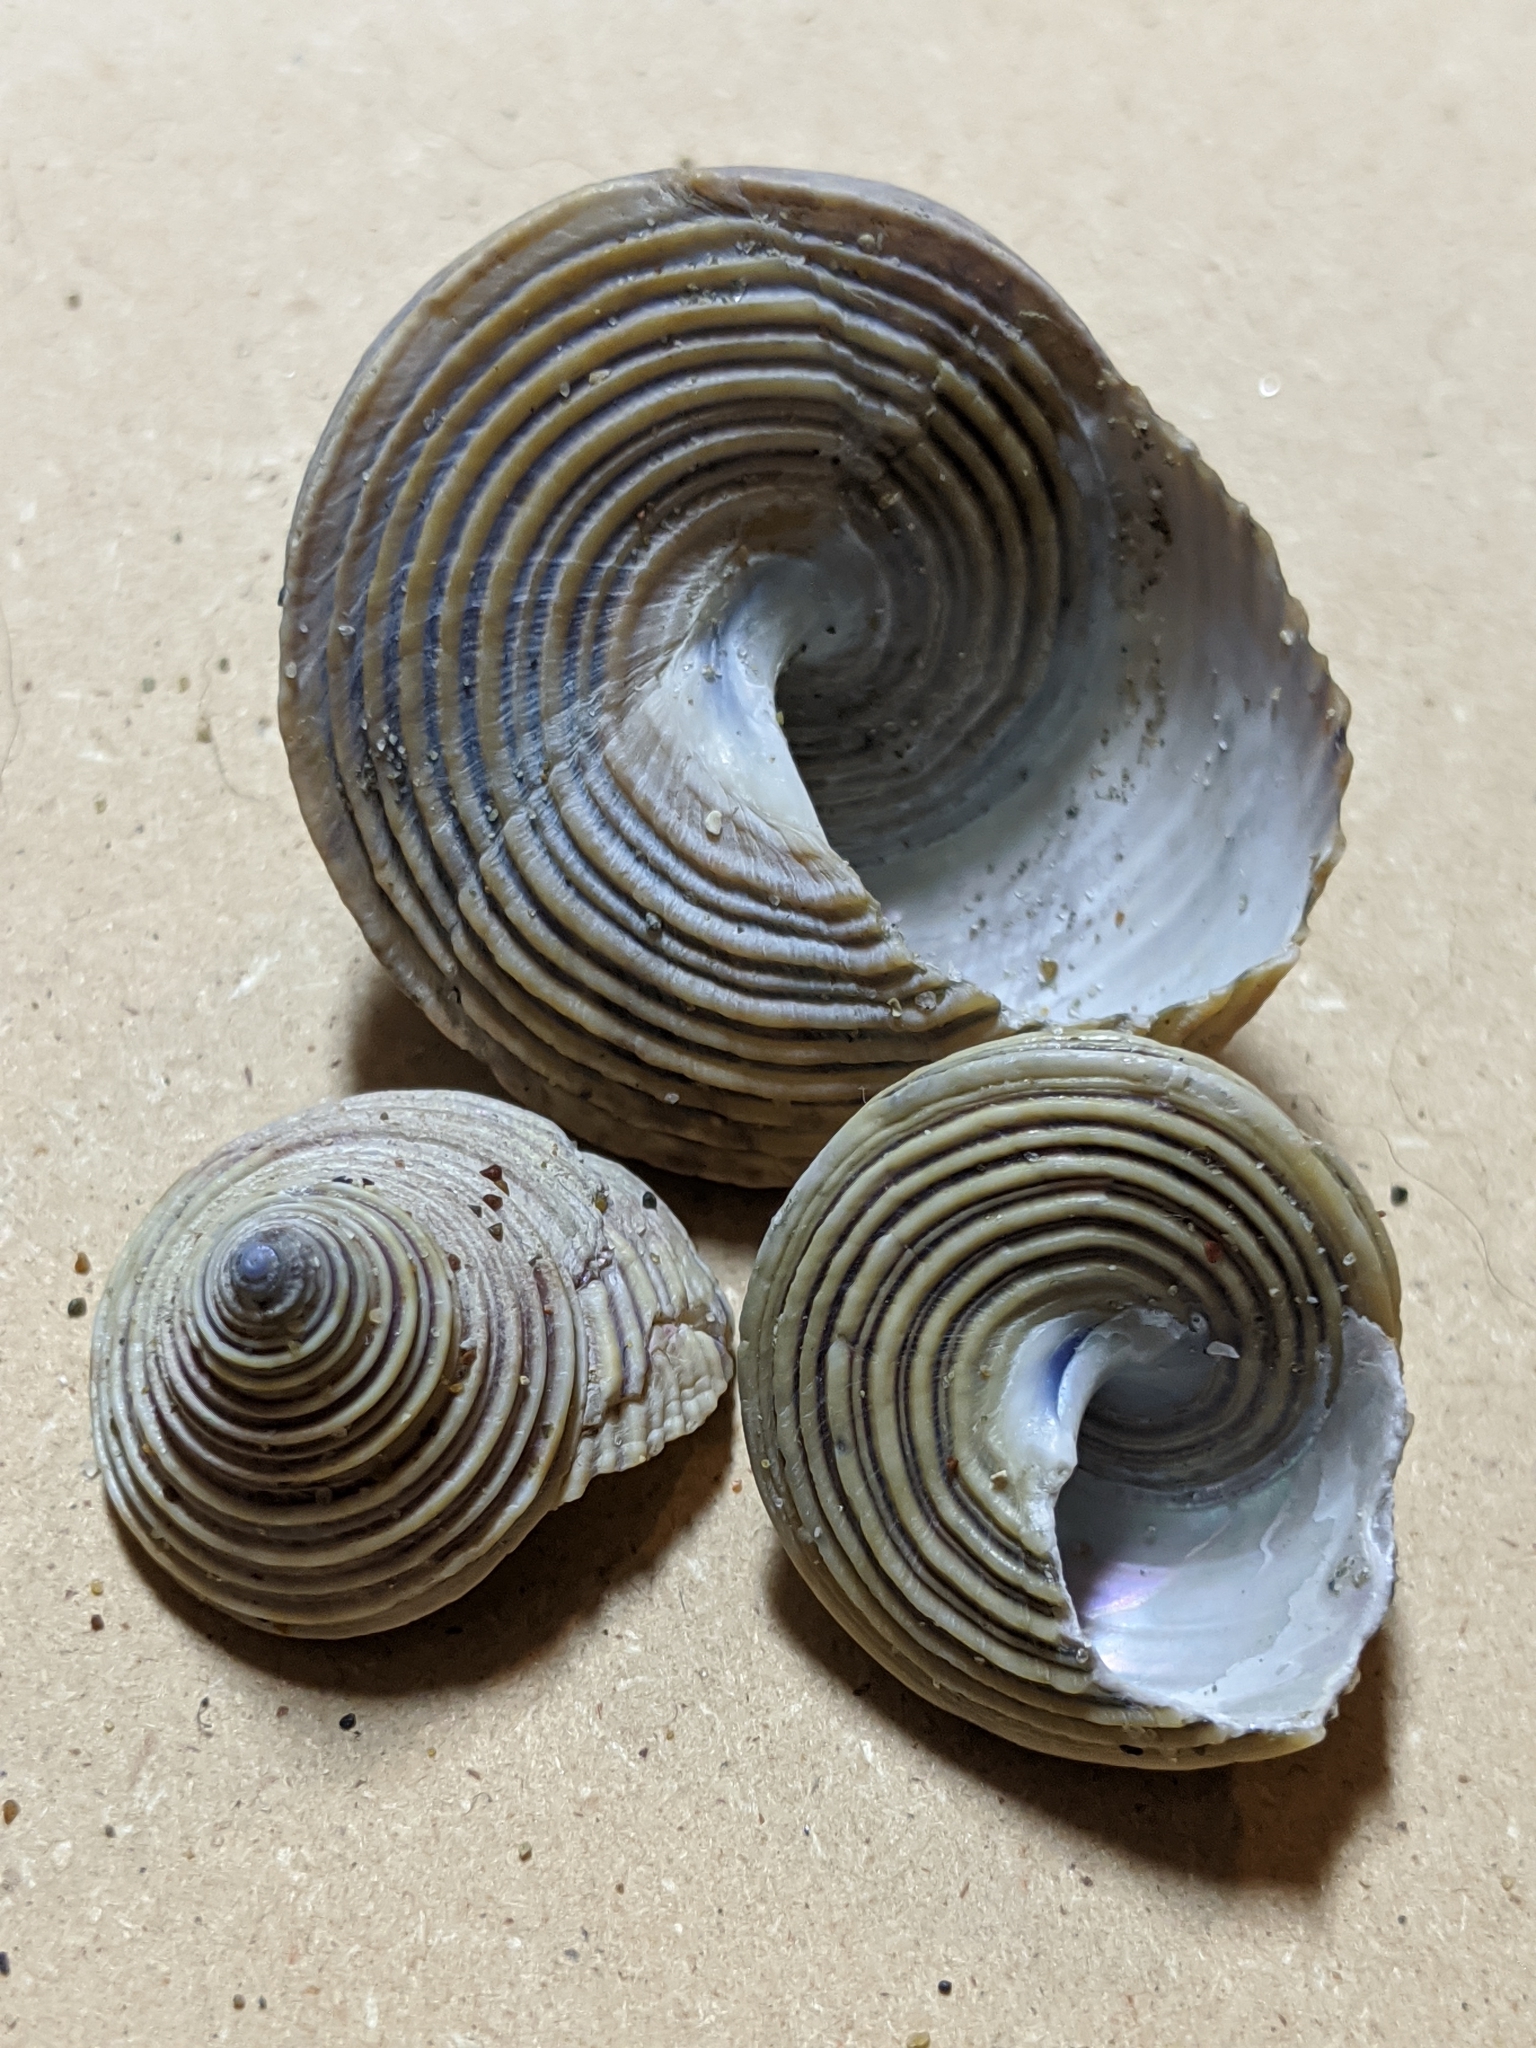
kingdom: Animalia
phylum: Mollusca
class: Gastropoda
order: Trochida
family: Calliostomatidae
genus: Calliostoma
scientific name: Calliostoma canaliculatum
